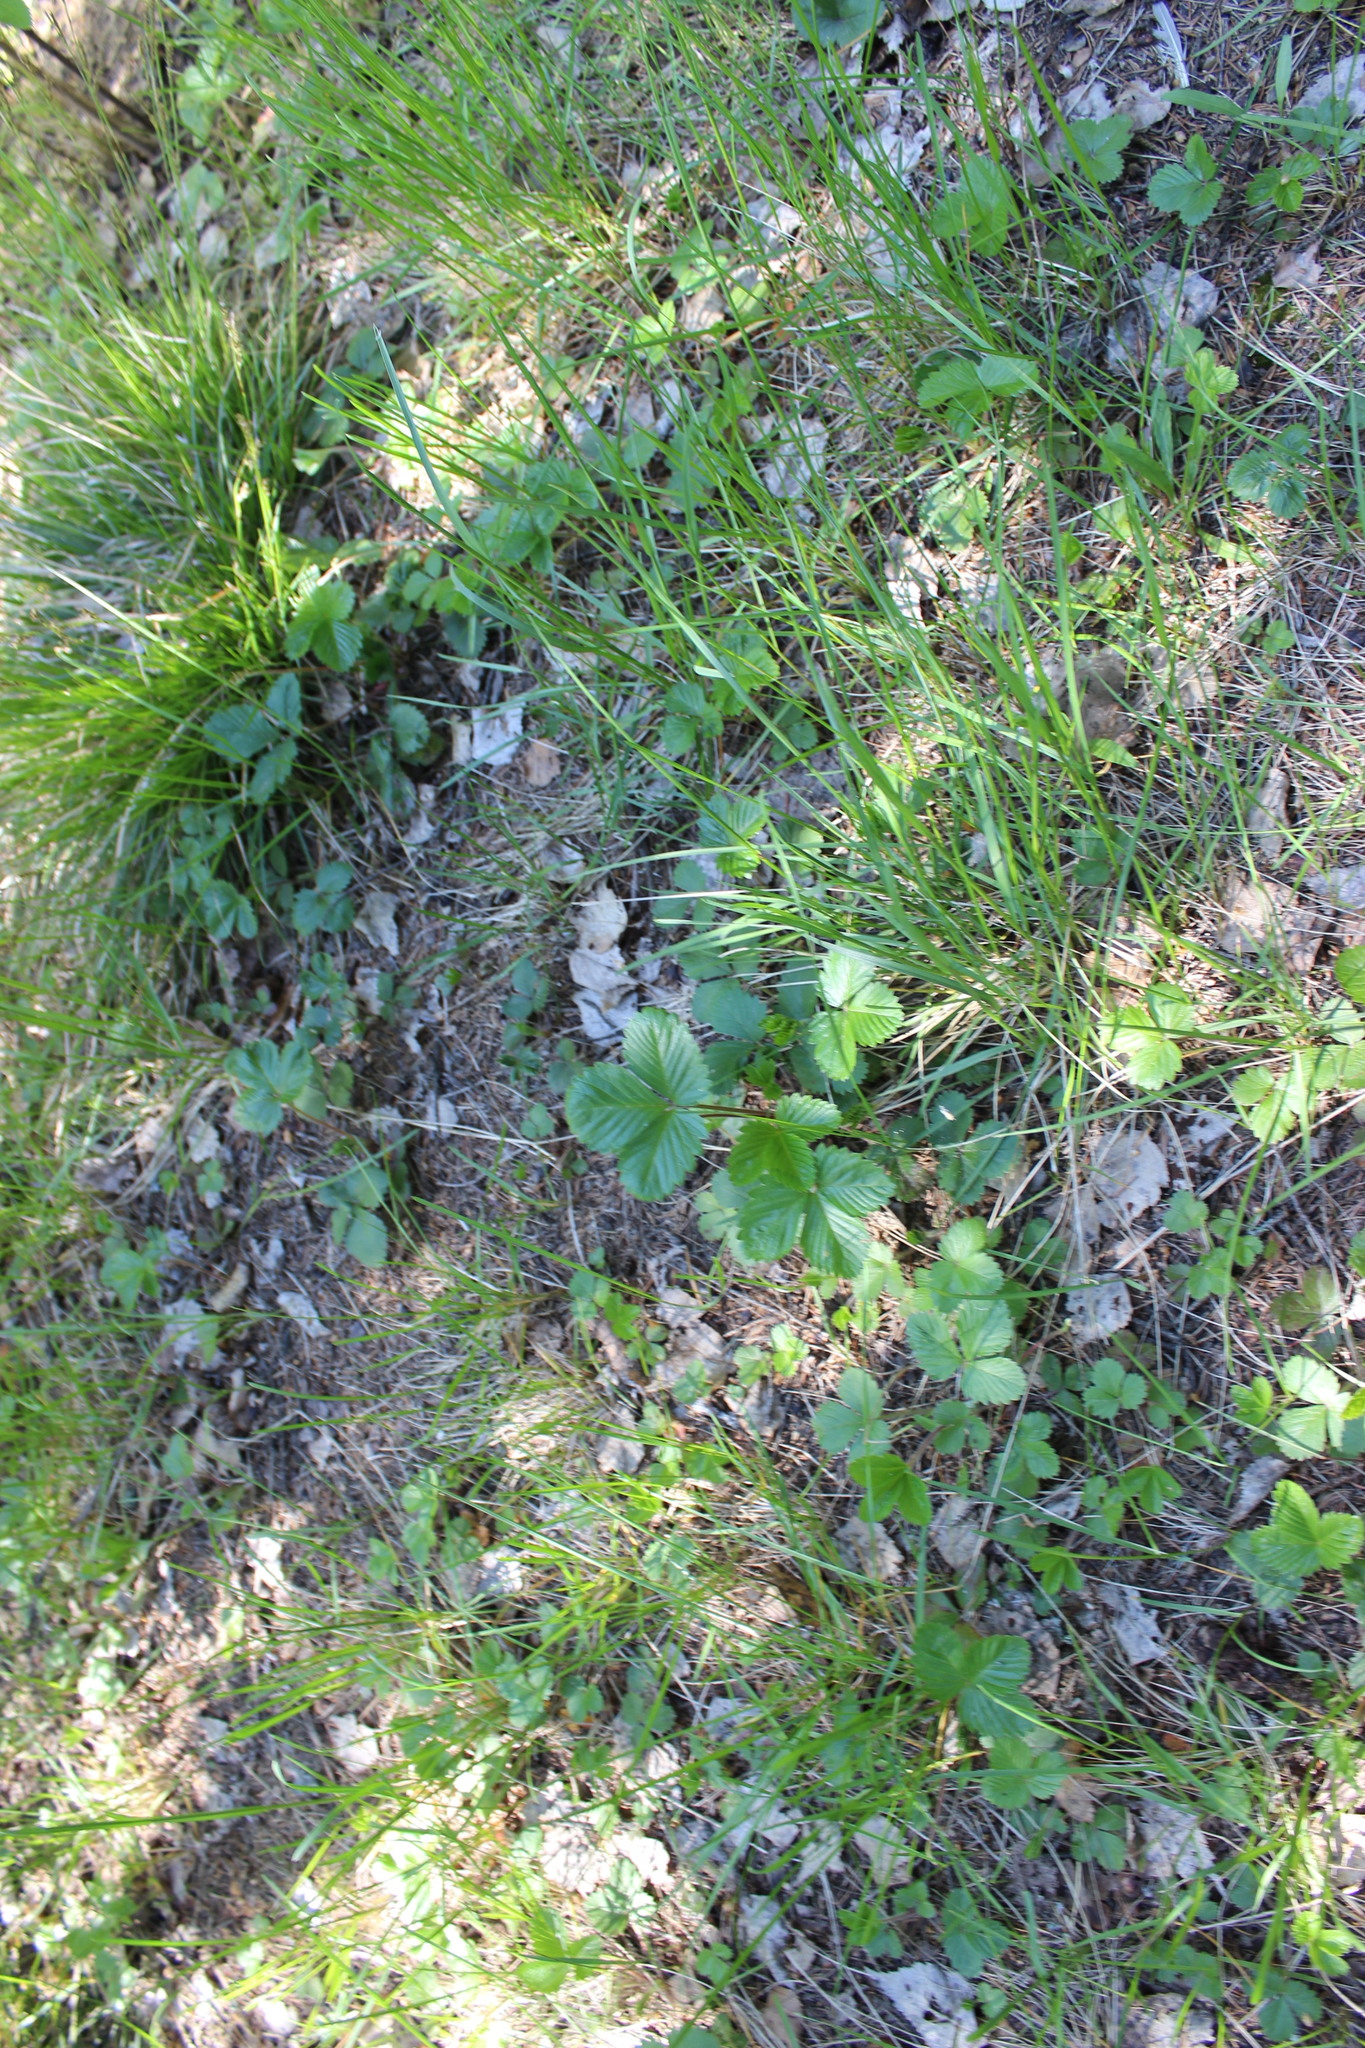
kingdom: Plantae
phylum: Tracheophyta
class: Magnoliopsida
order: Rosales
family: Rosaceae
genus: Fragaria
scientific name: Fragaria vesca
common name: Wild strawberry
